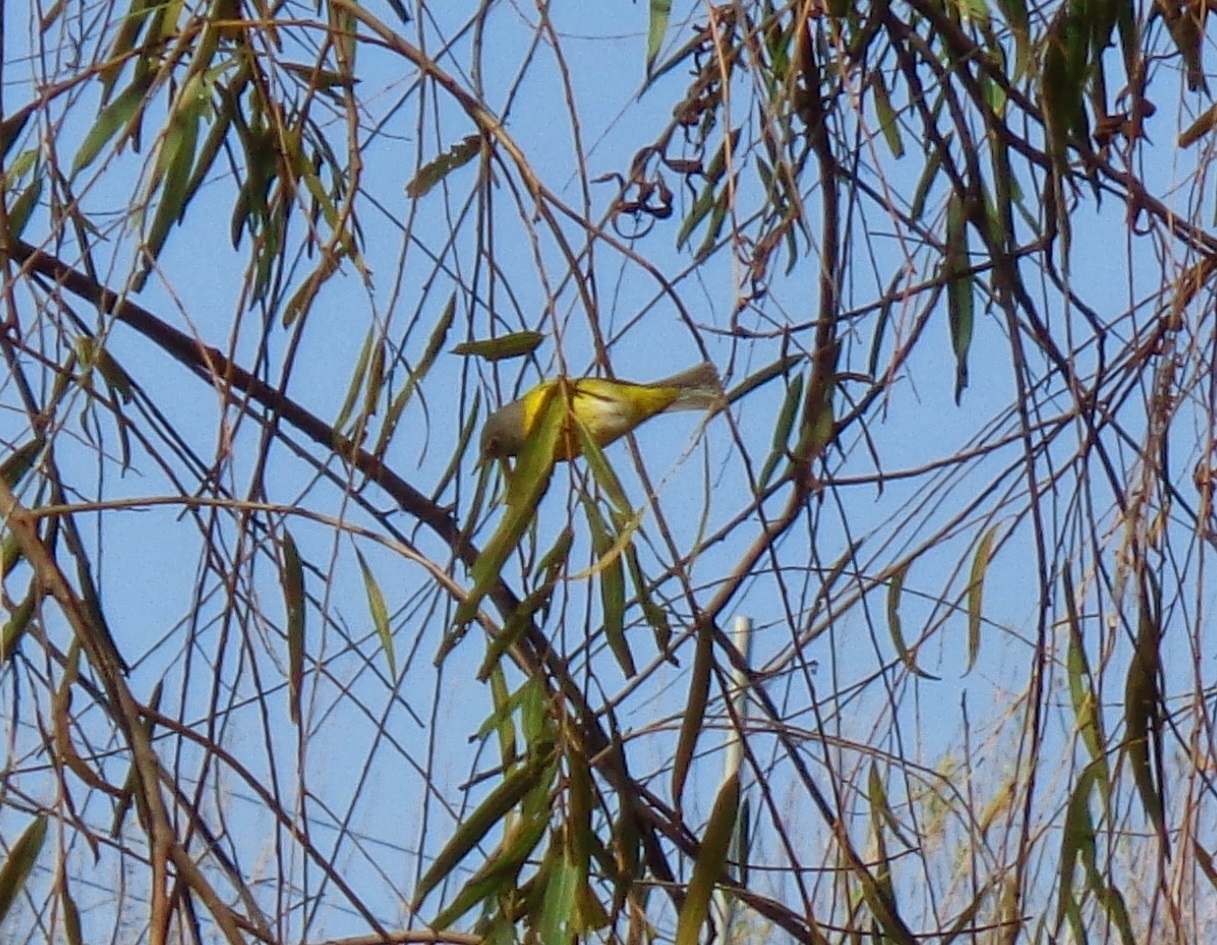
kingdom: Animalia
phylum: Chordata
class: Aves
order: Passeriformes
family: Parulidae
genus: Leiothlypis
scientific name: Leiothlypis ruficapilla
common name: Nashville warbler
